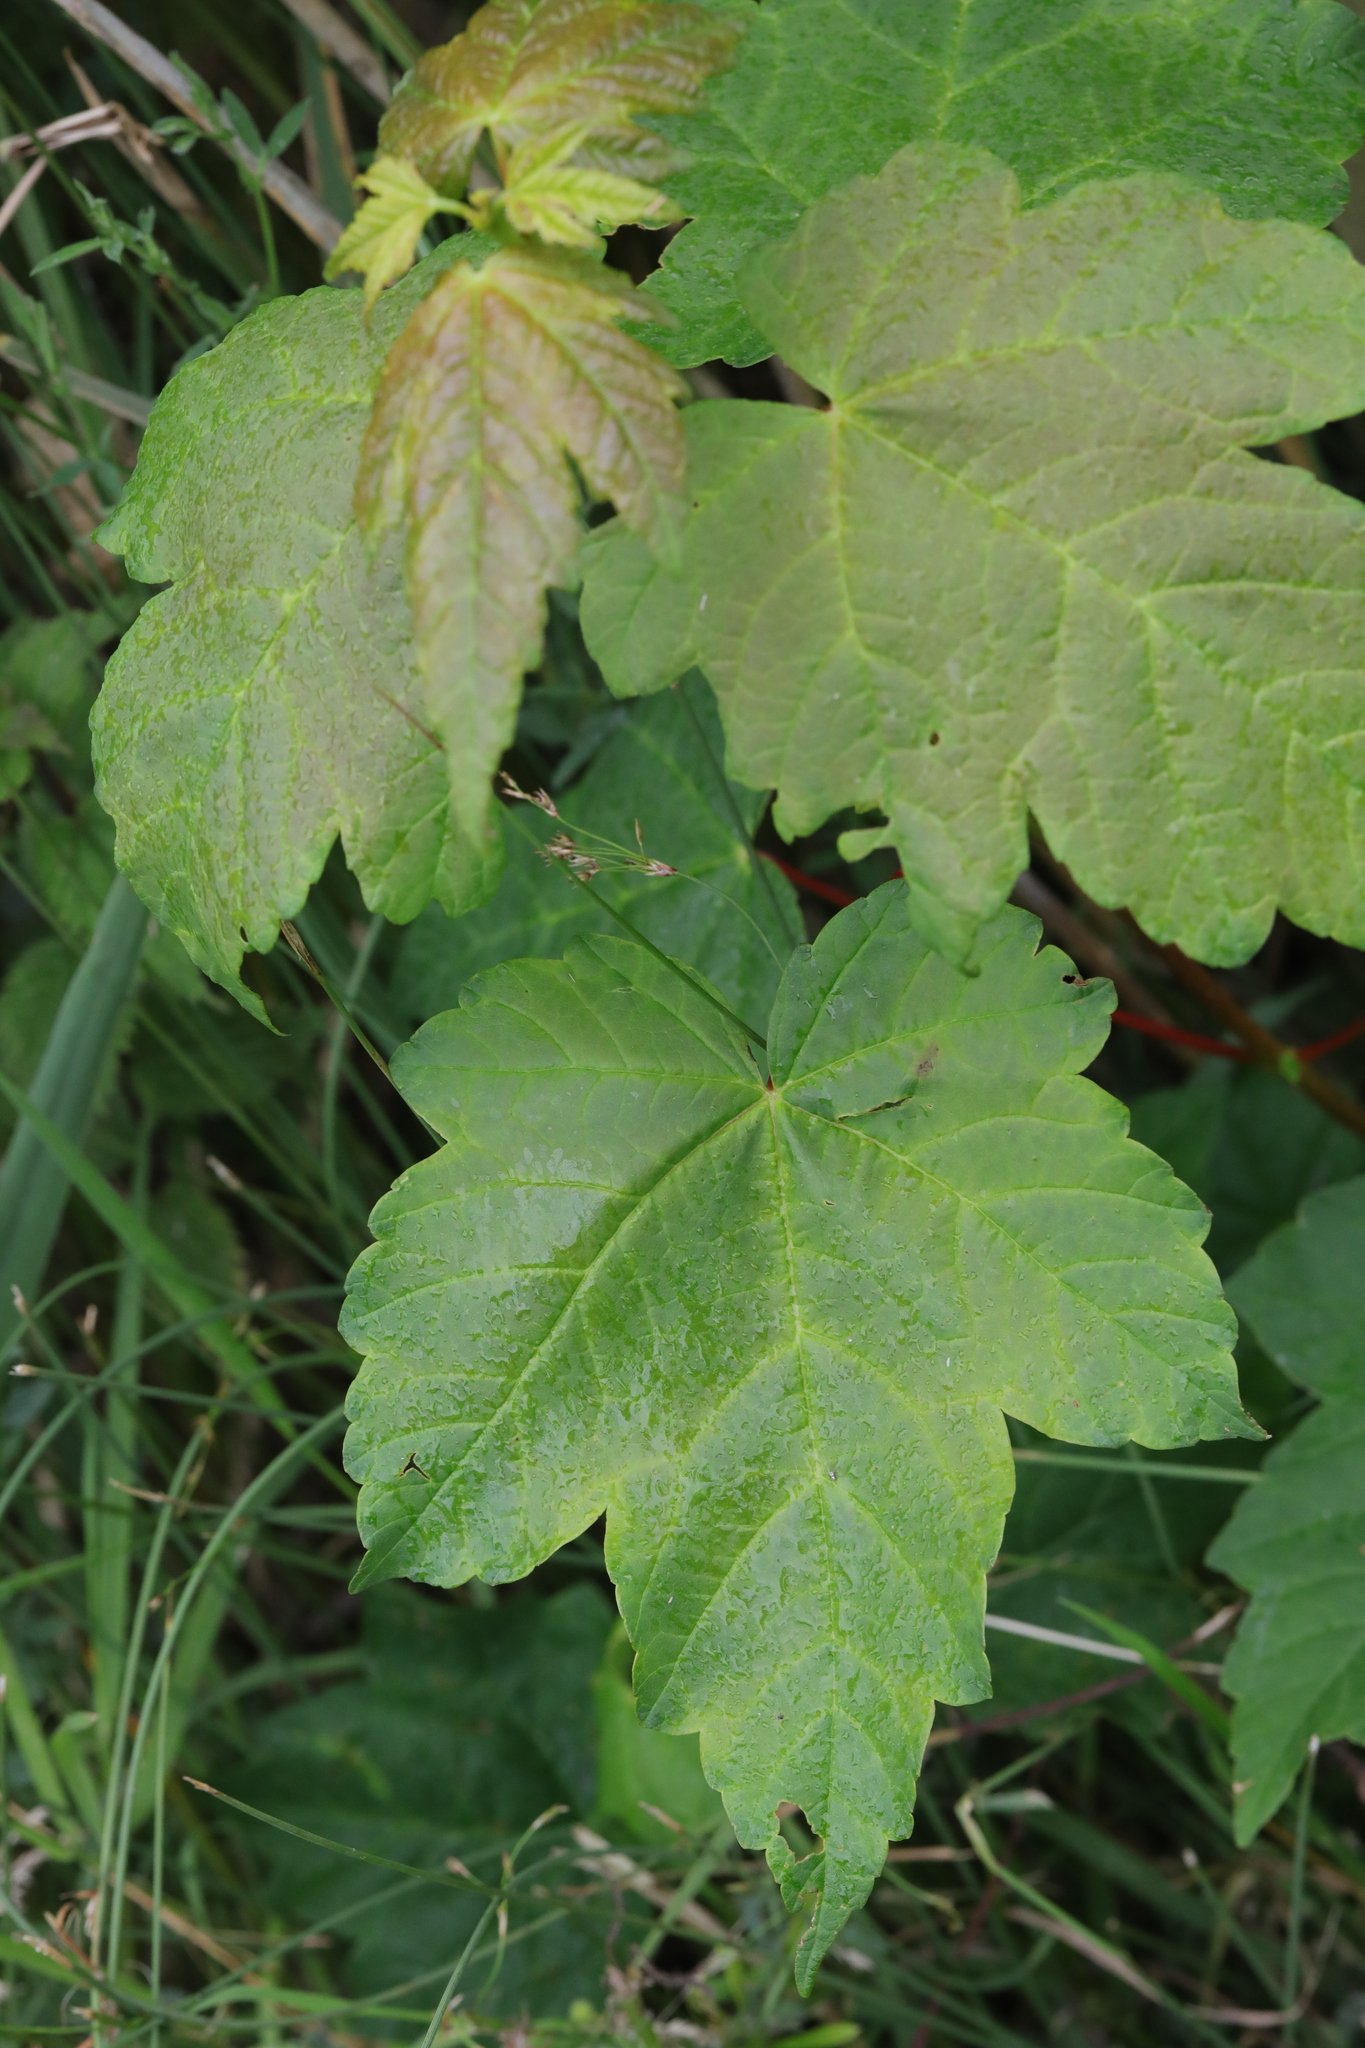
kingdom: Plantae
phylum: Tracheophyta
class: Magnoliopsida
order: Sapindales
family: Sapindaceae
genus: Acer
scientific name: Acer pseudoplatanus
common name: Sycamore
